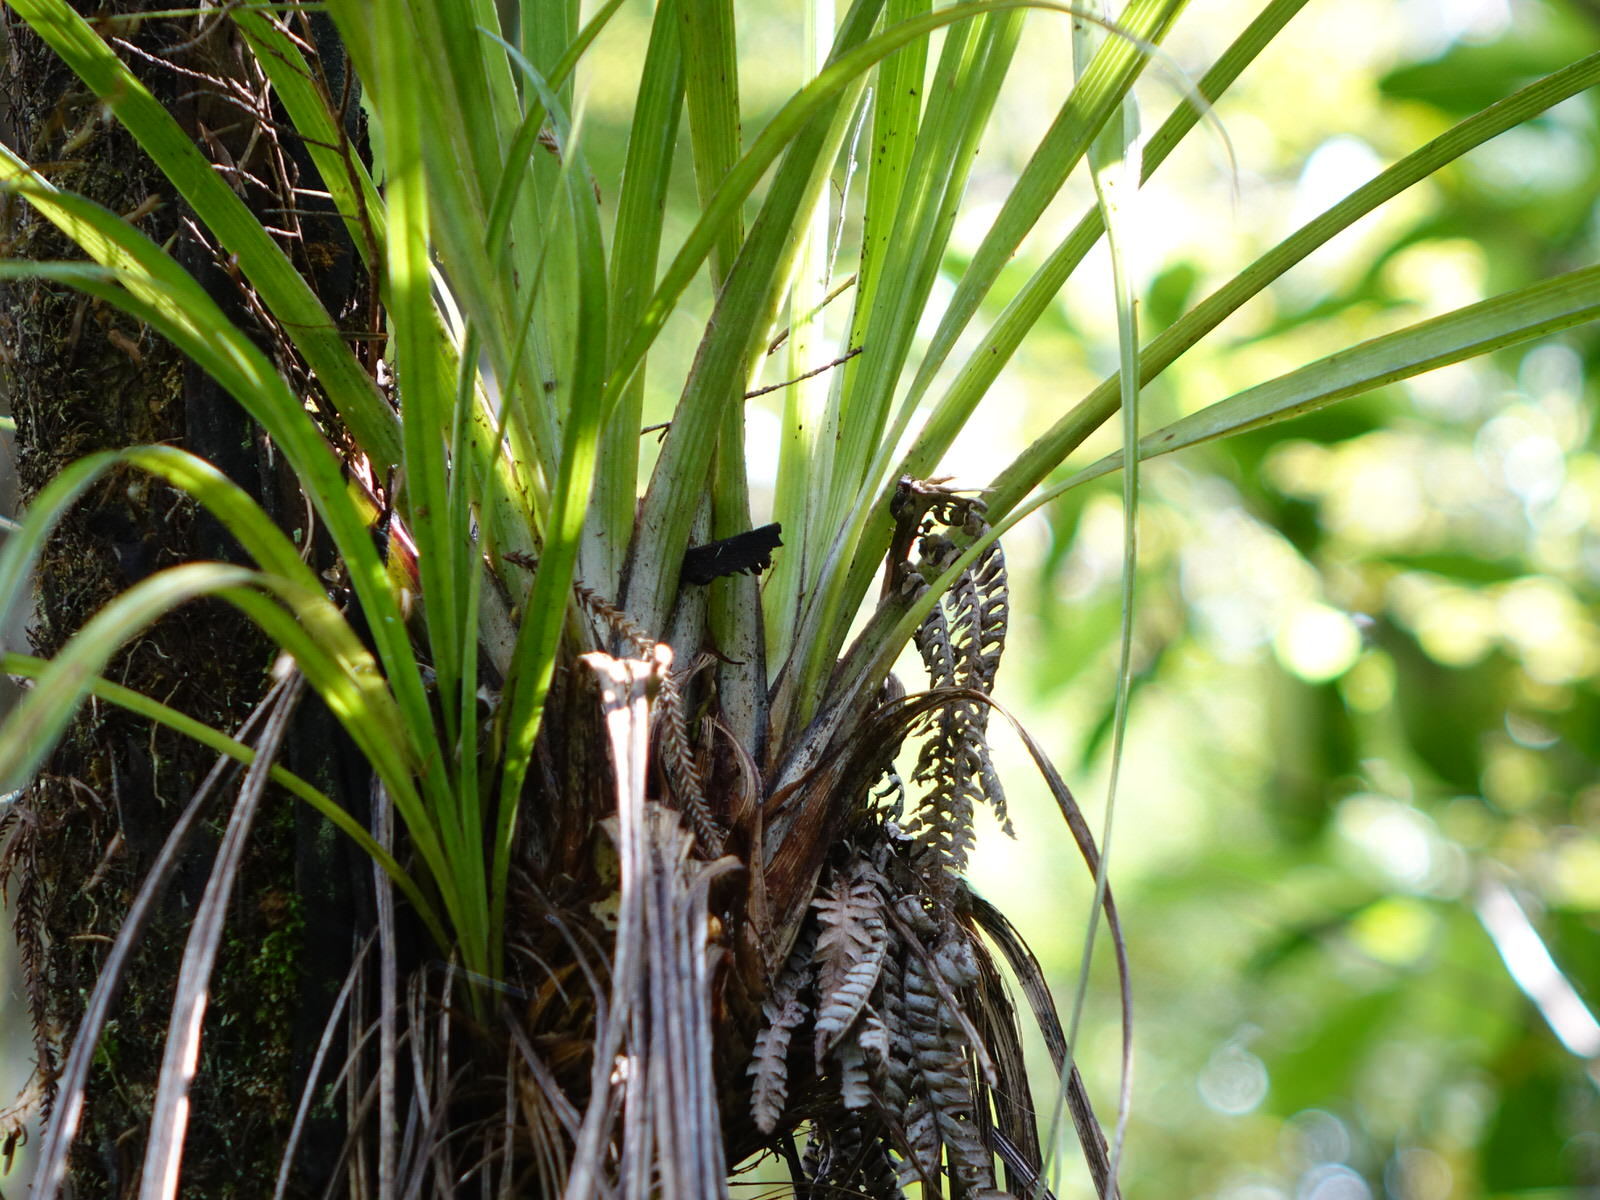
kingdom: Plantae
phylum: Tracheophyta
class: Liliopsida
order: Asparagales
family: Asteliaceae
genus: Astelia
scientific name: Astelia solandri
